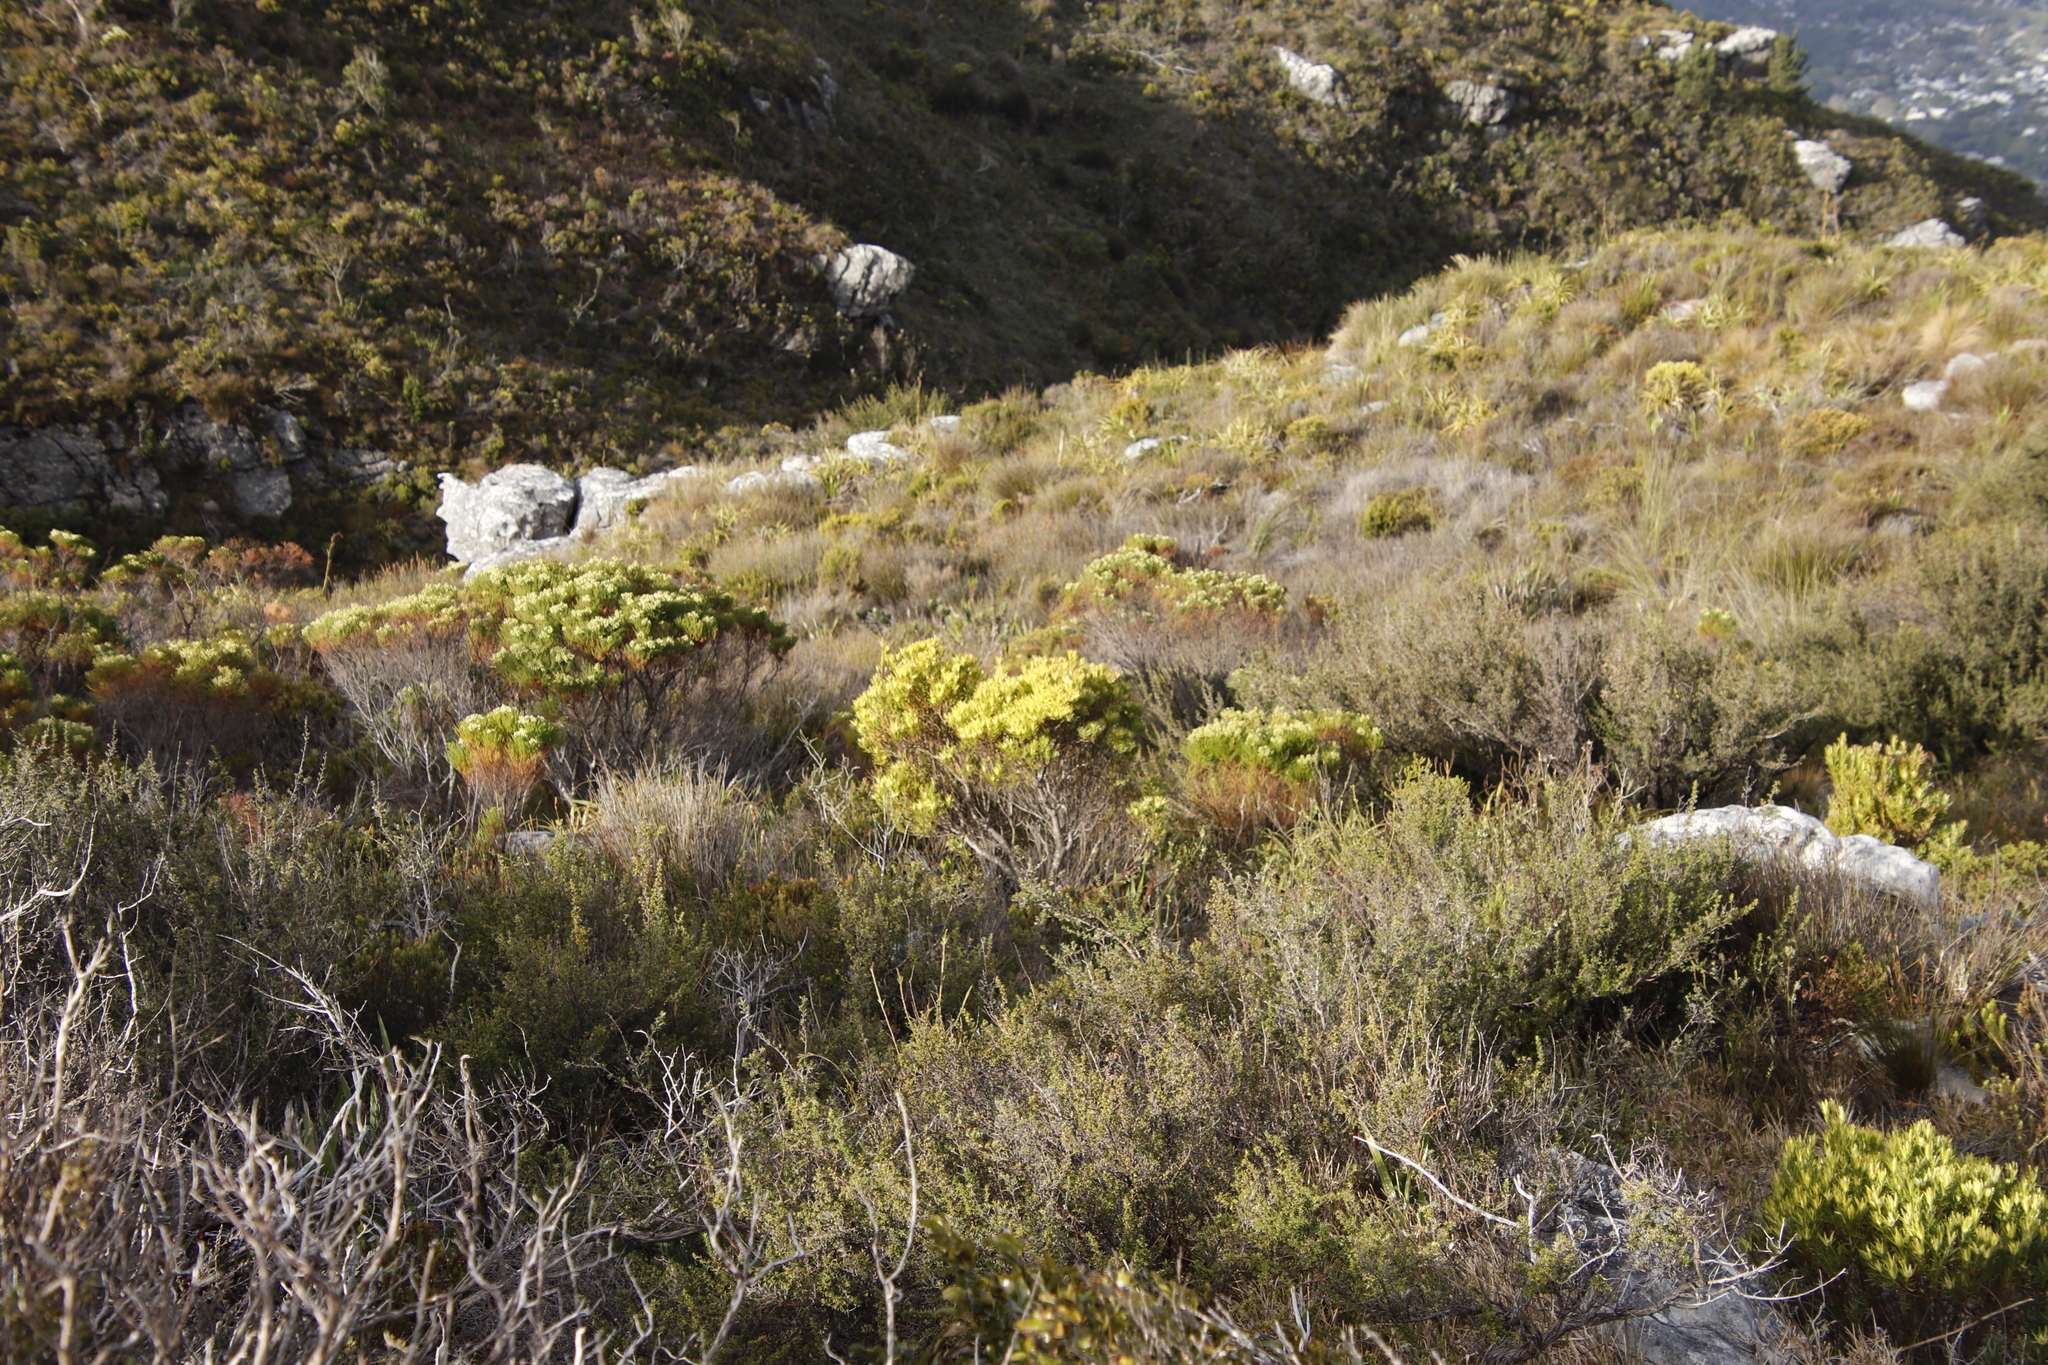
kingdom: Plantae
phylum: Tracheophyta
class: Magnoliopsida
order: Proteales
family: Proteaceae
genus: Leucadendron
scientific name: Leucadendron xanthoconus
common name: Sickle-leaf conebush
